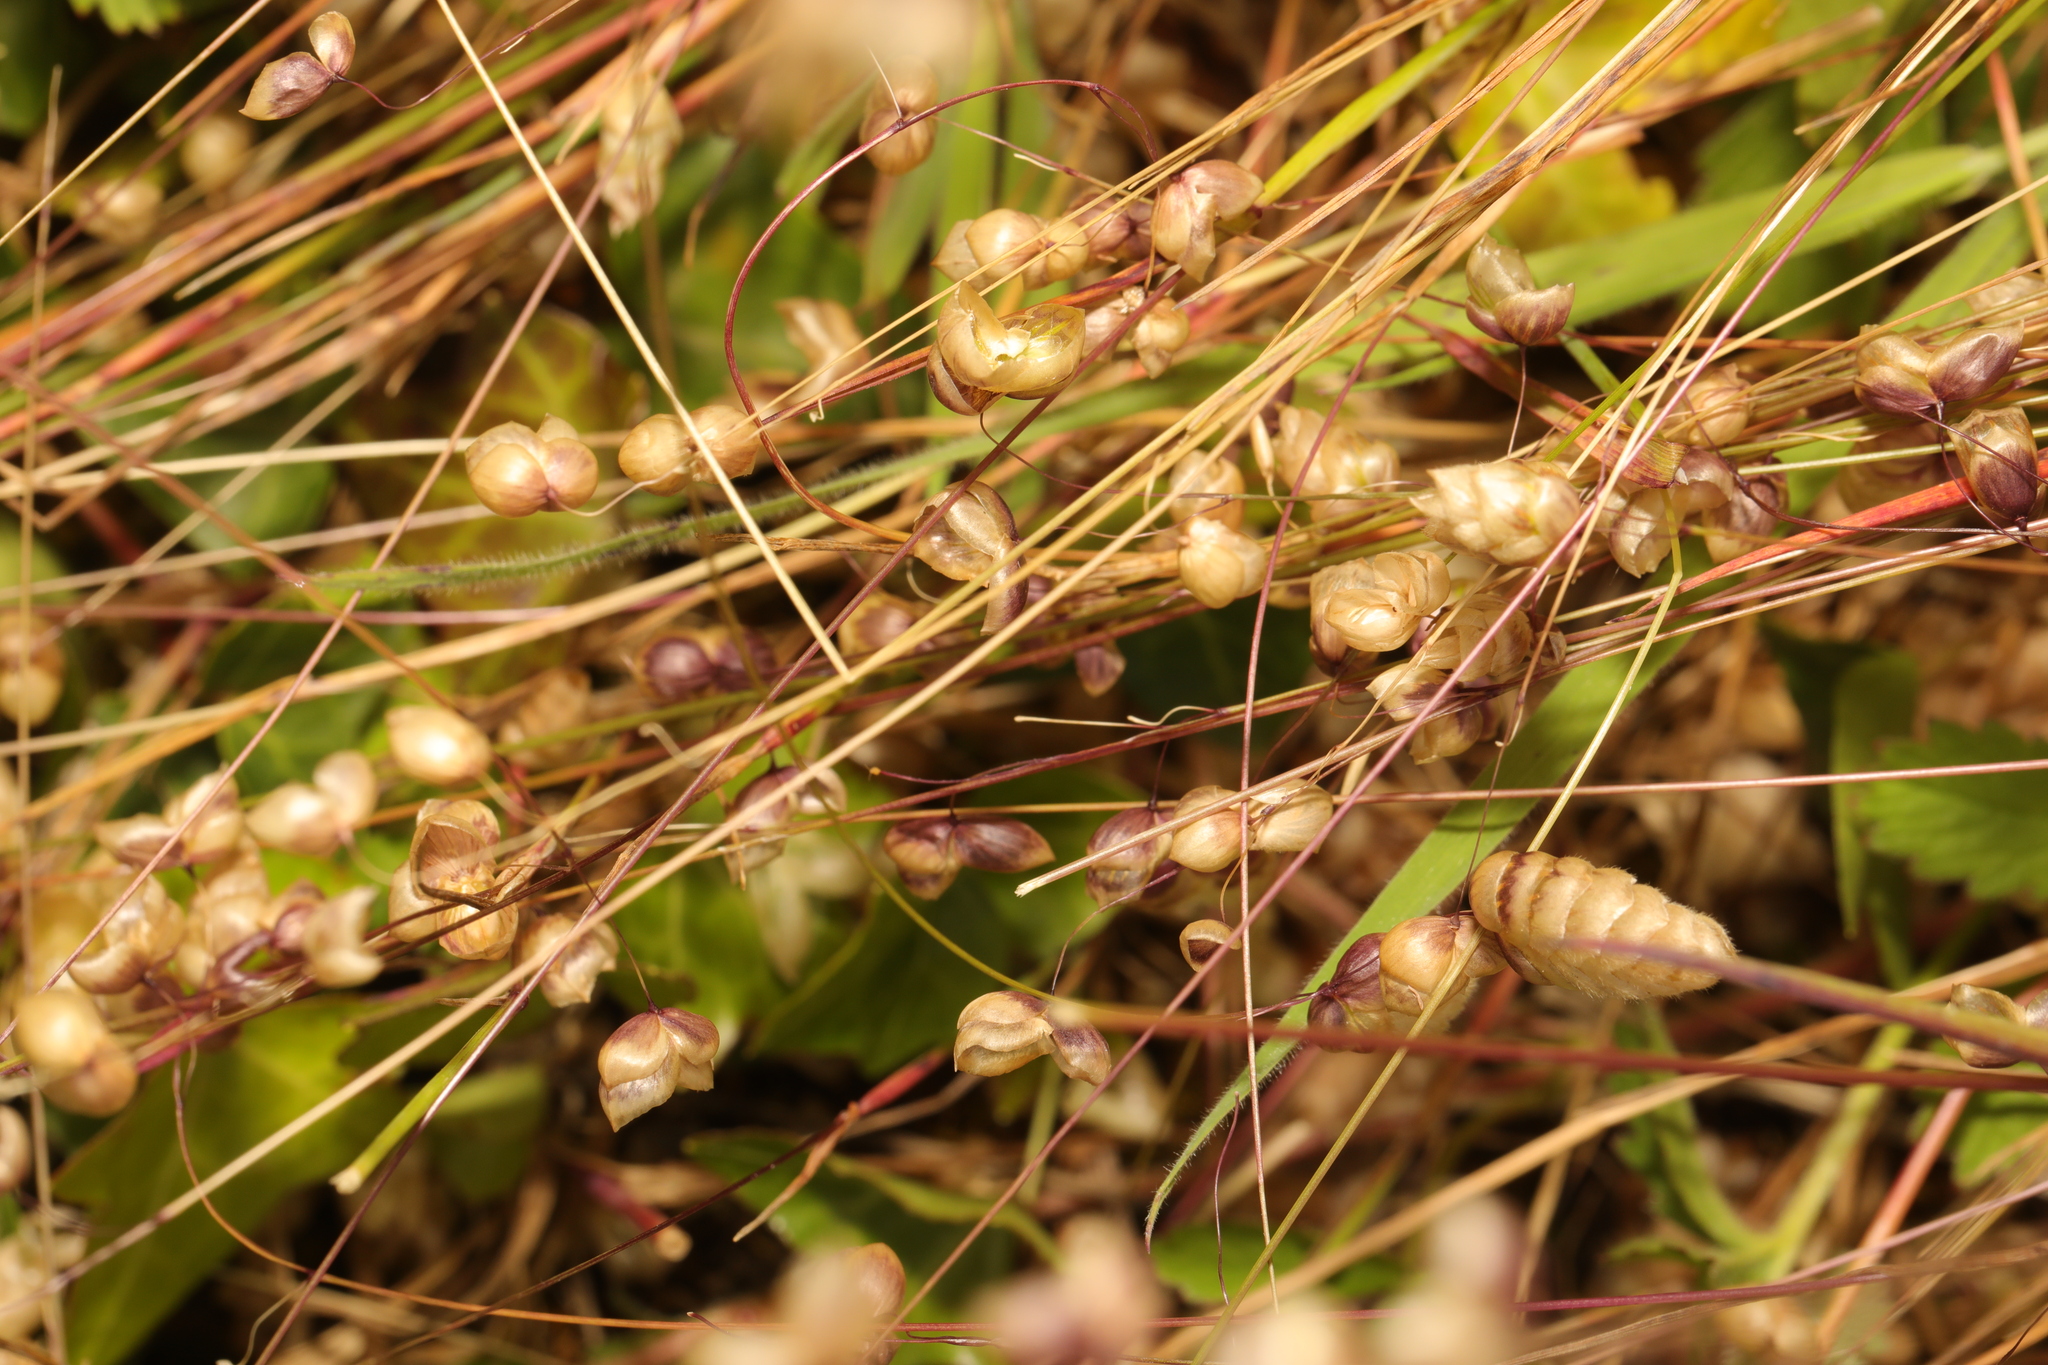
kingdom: Plantae
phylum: Tracheophyta
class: Liliopsida
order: Poales
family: Poaceae
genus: Briza
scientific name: Briza maxima
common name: Big quakinggrass
